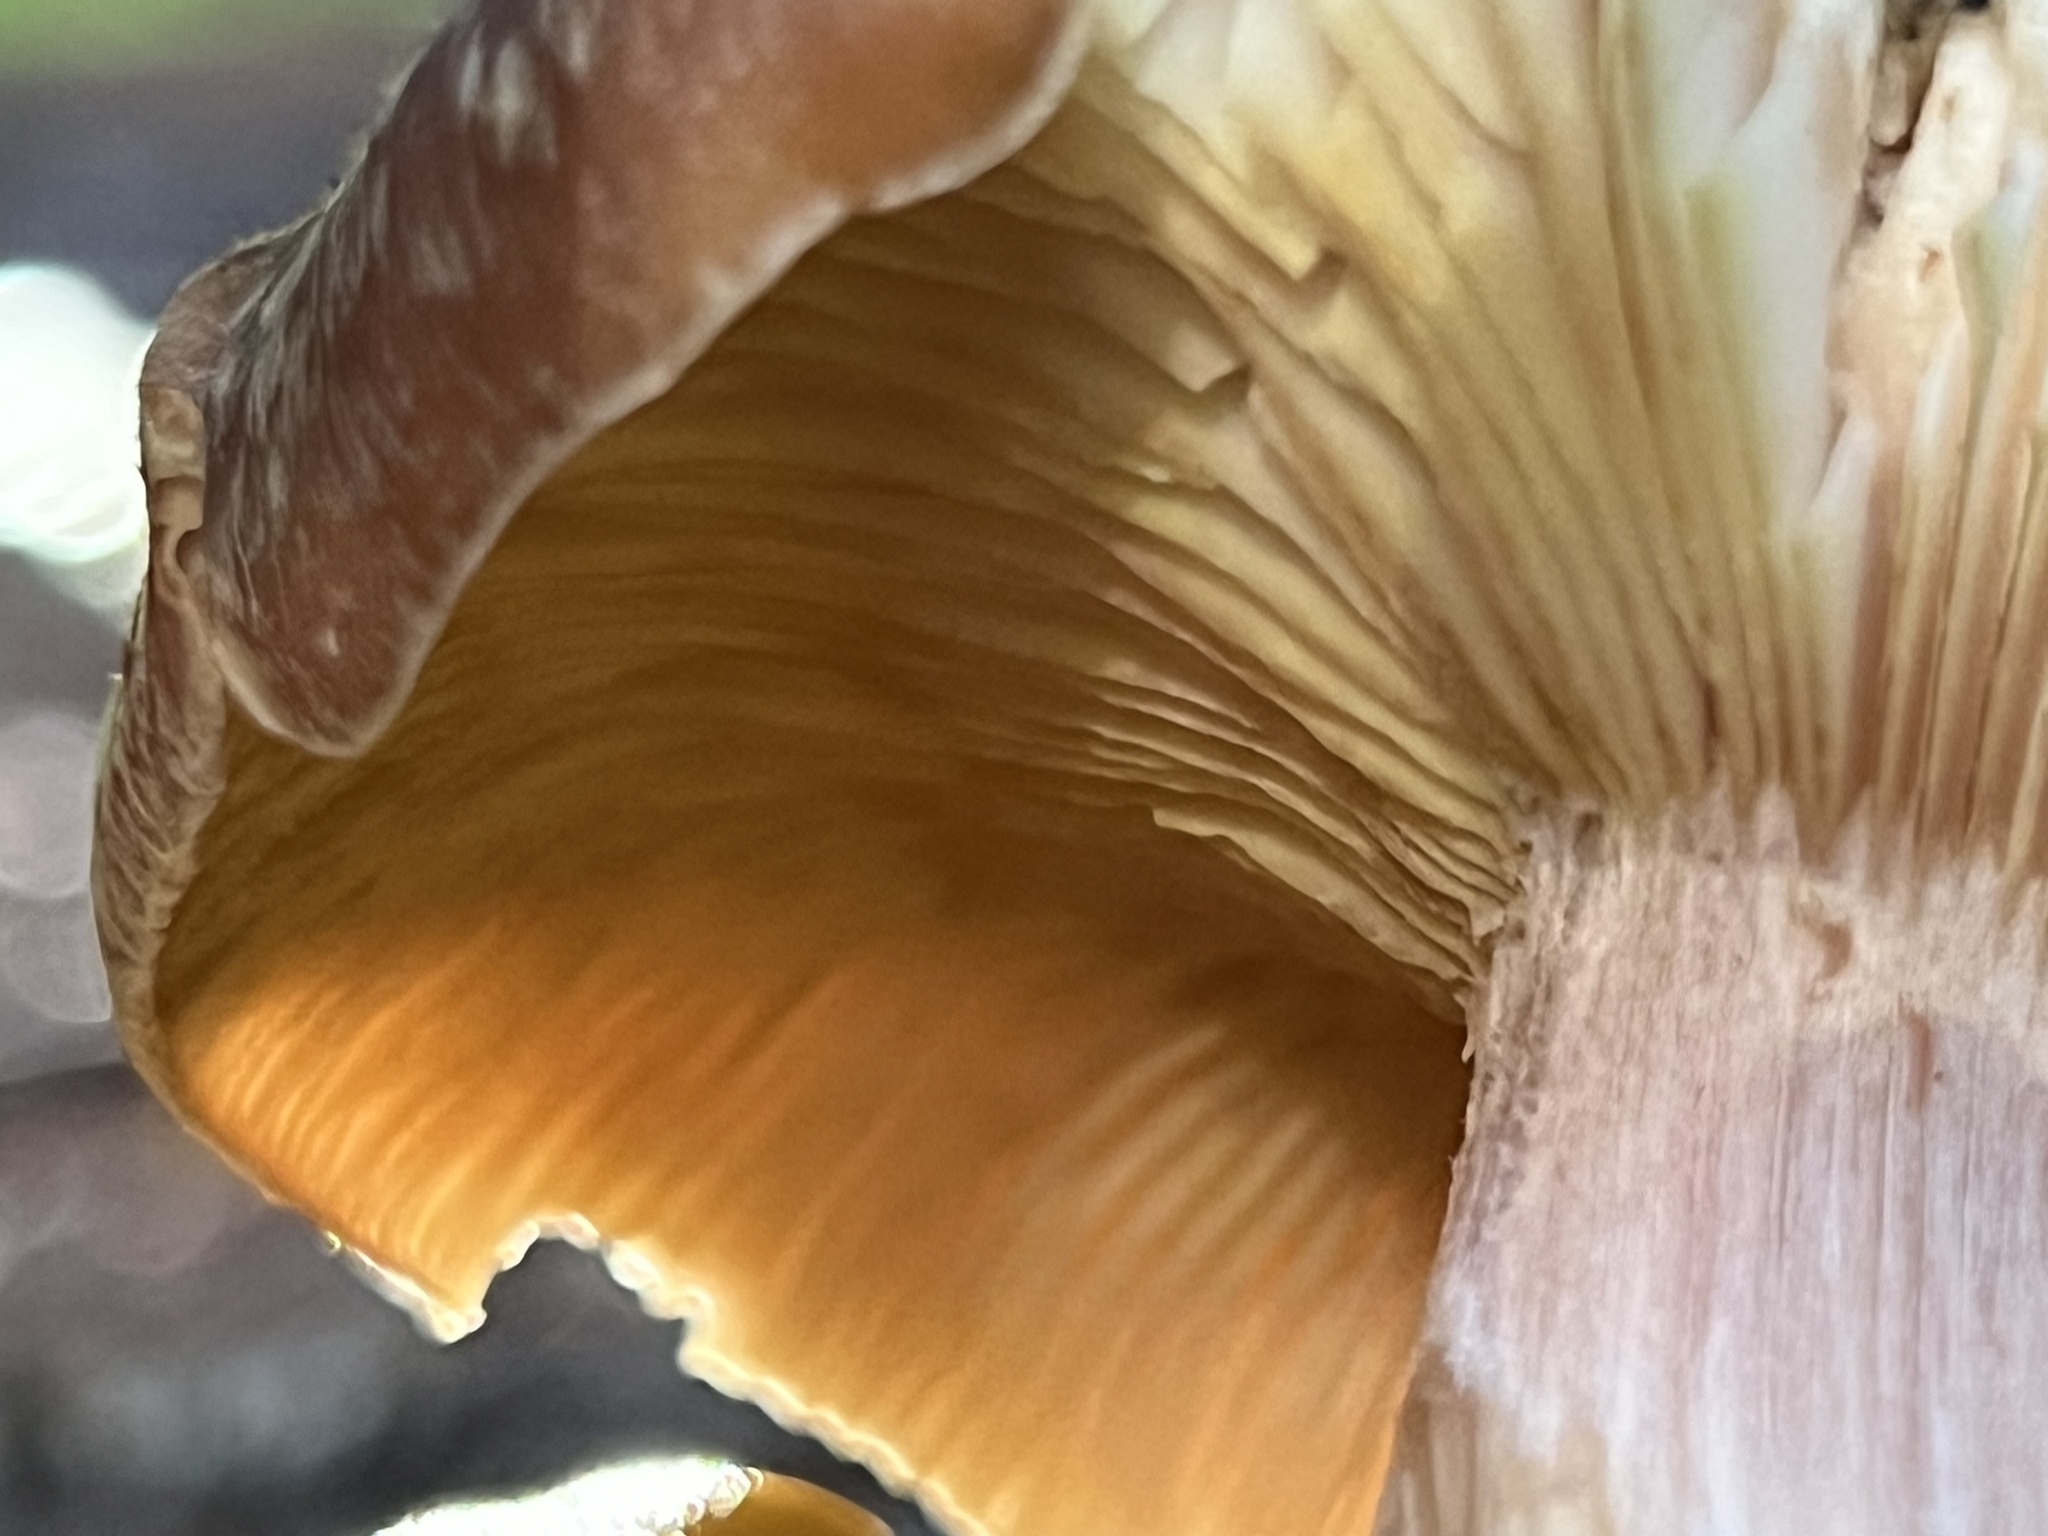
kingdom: Fungi
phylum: Basidiomycota
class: Agaricomycetes
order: Agaricales
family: Physalacriaceae
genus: Armillaria
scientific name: Armillaria sinapina
